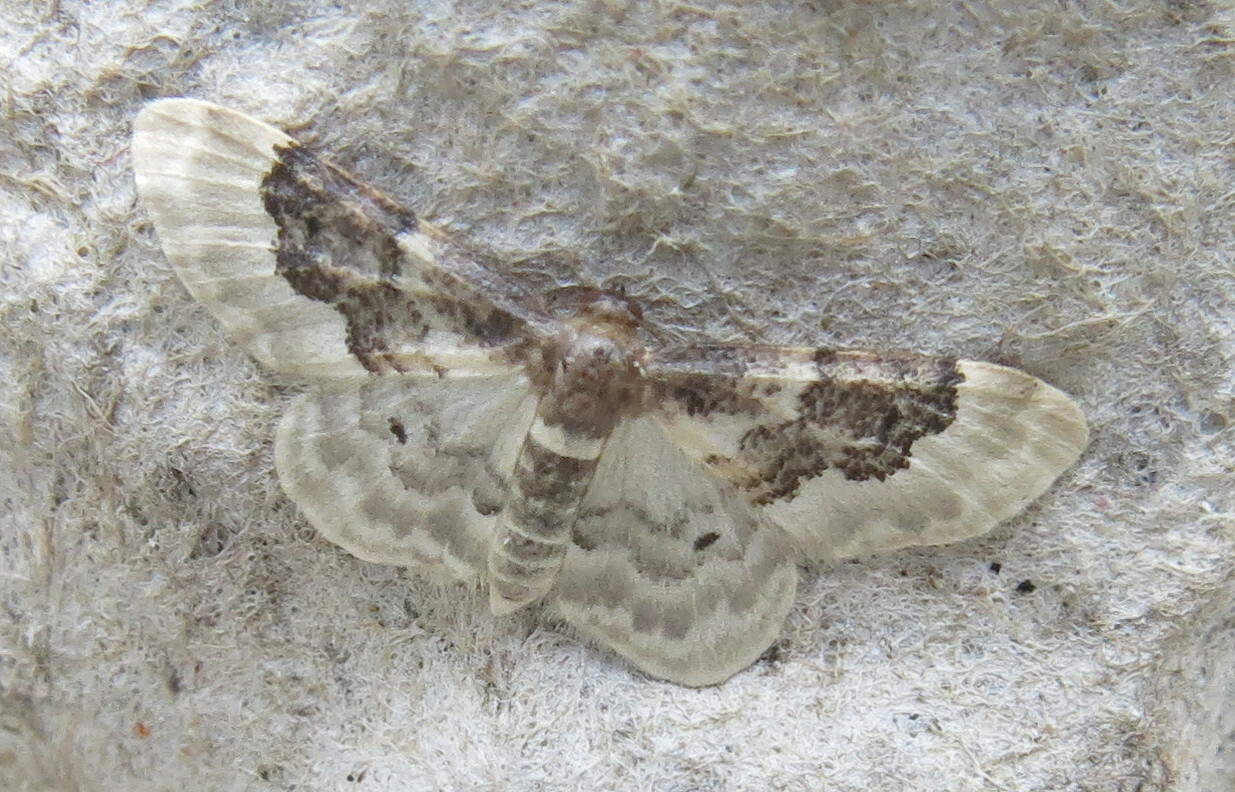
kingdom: Animalia
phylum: Arthropoda
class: Insecta
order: Lepidoptera
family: Geometridae
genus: Idaea
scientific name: Idaea rusticata
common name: Least carpet
